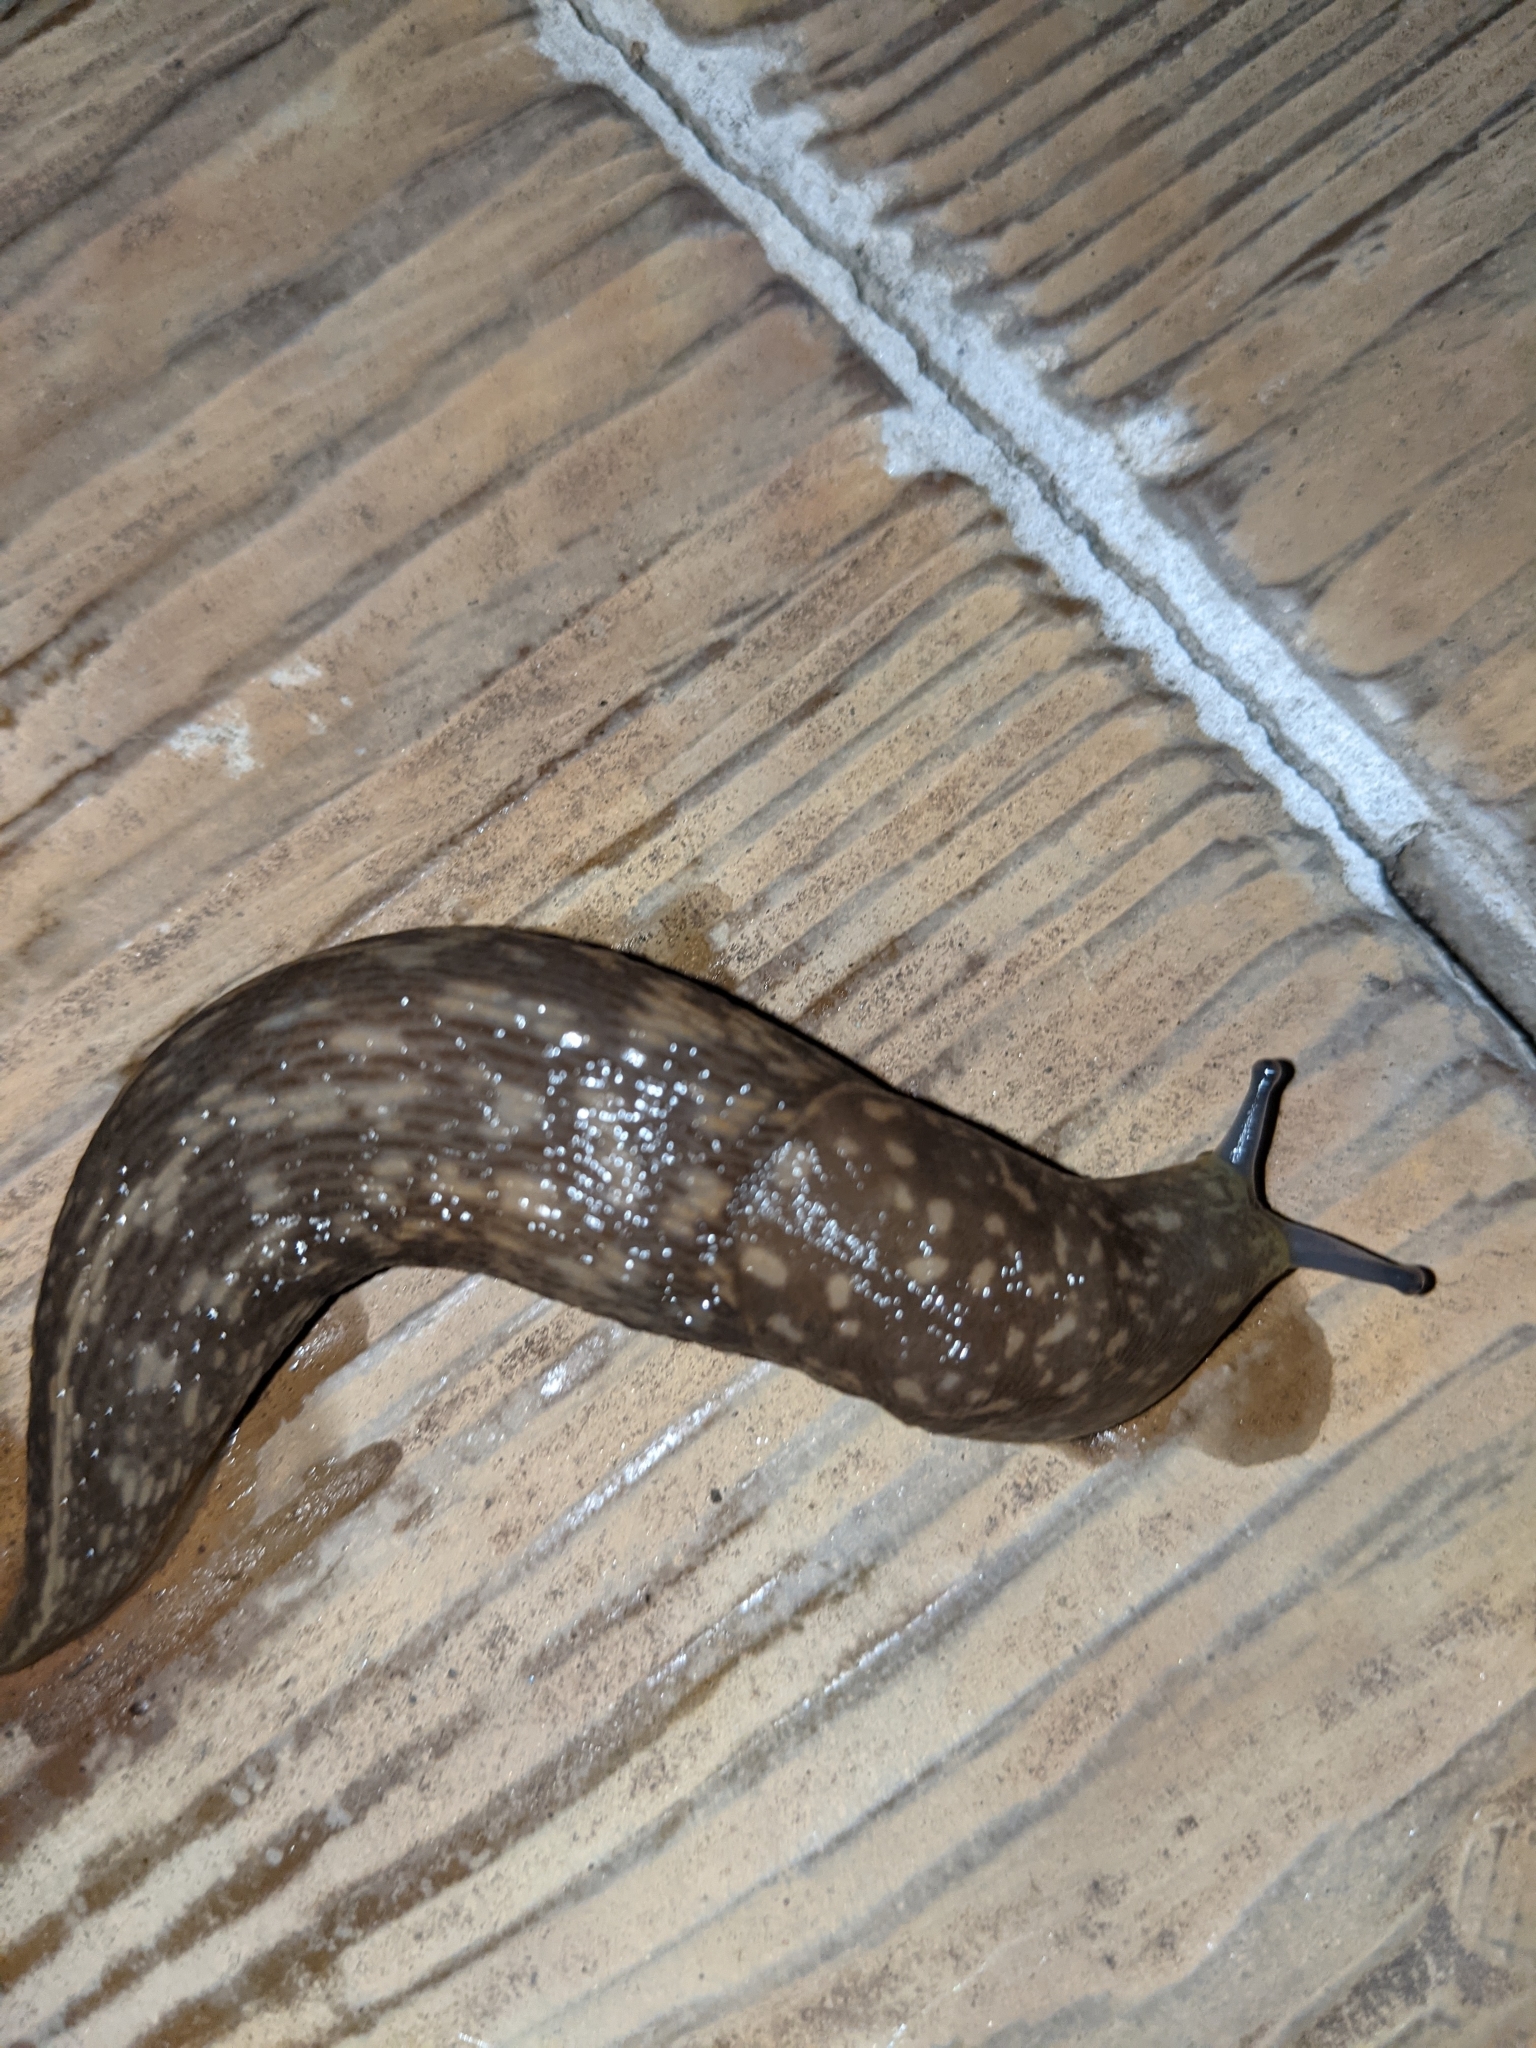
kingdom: Animalia
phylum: Mollusca
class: Gastropoda
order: Stylommatophora
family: Limacidae
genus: Limacus
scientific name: Limacus flavus
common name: Yellow gardenslug
